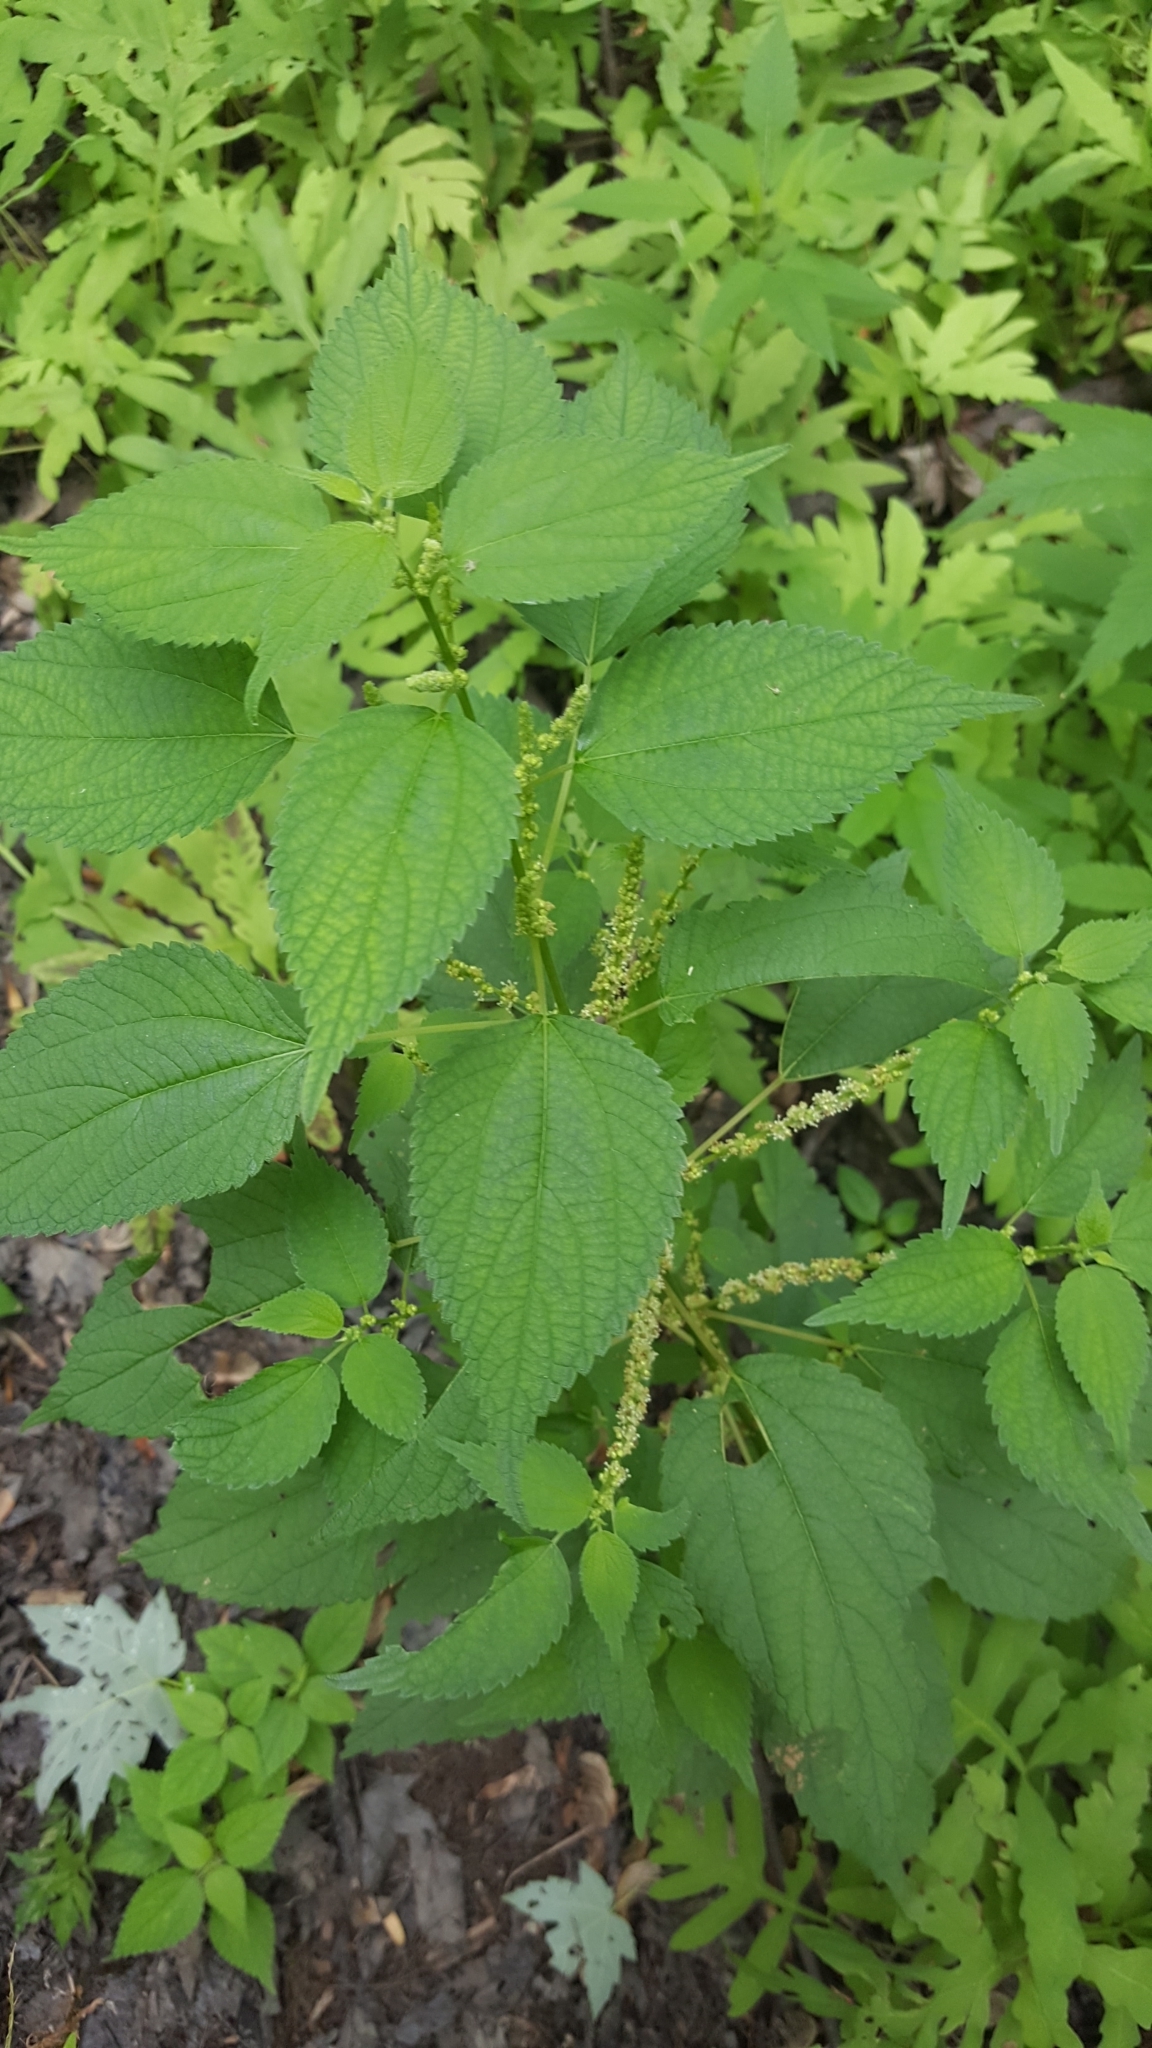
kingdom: Plantae
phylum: Tracheophyta
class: Magnoliopsida
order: Rosales
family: Urticaceae
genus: Boehmeria
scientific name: Boehmeria cylindrica
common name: Bog-hemp
